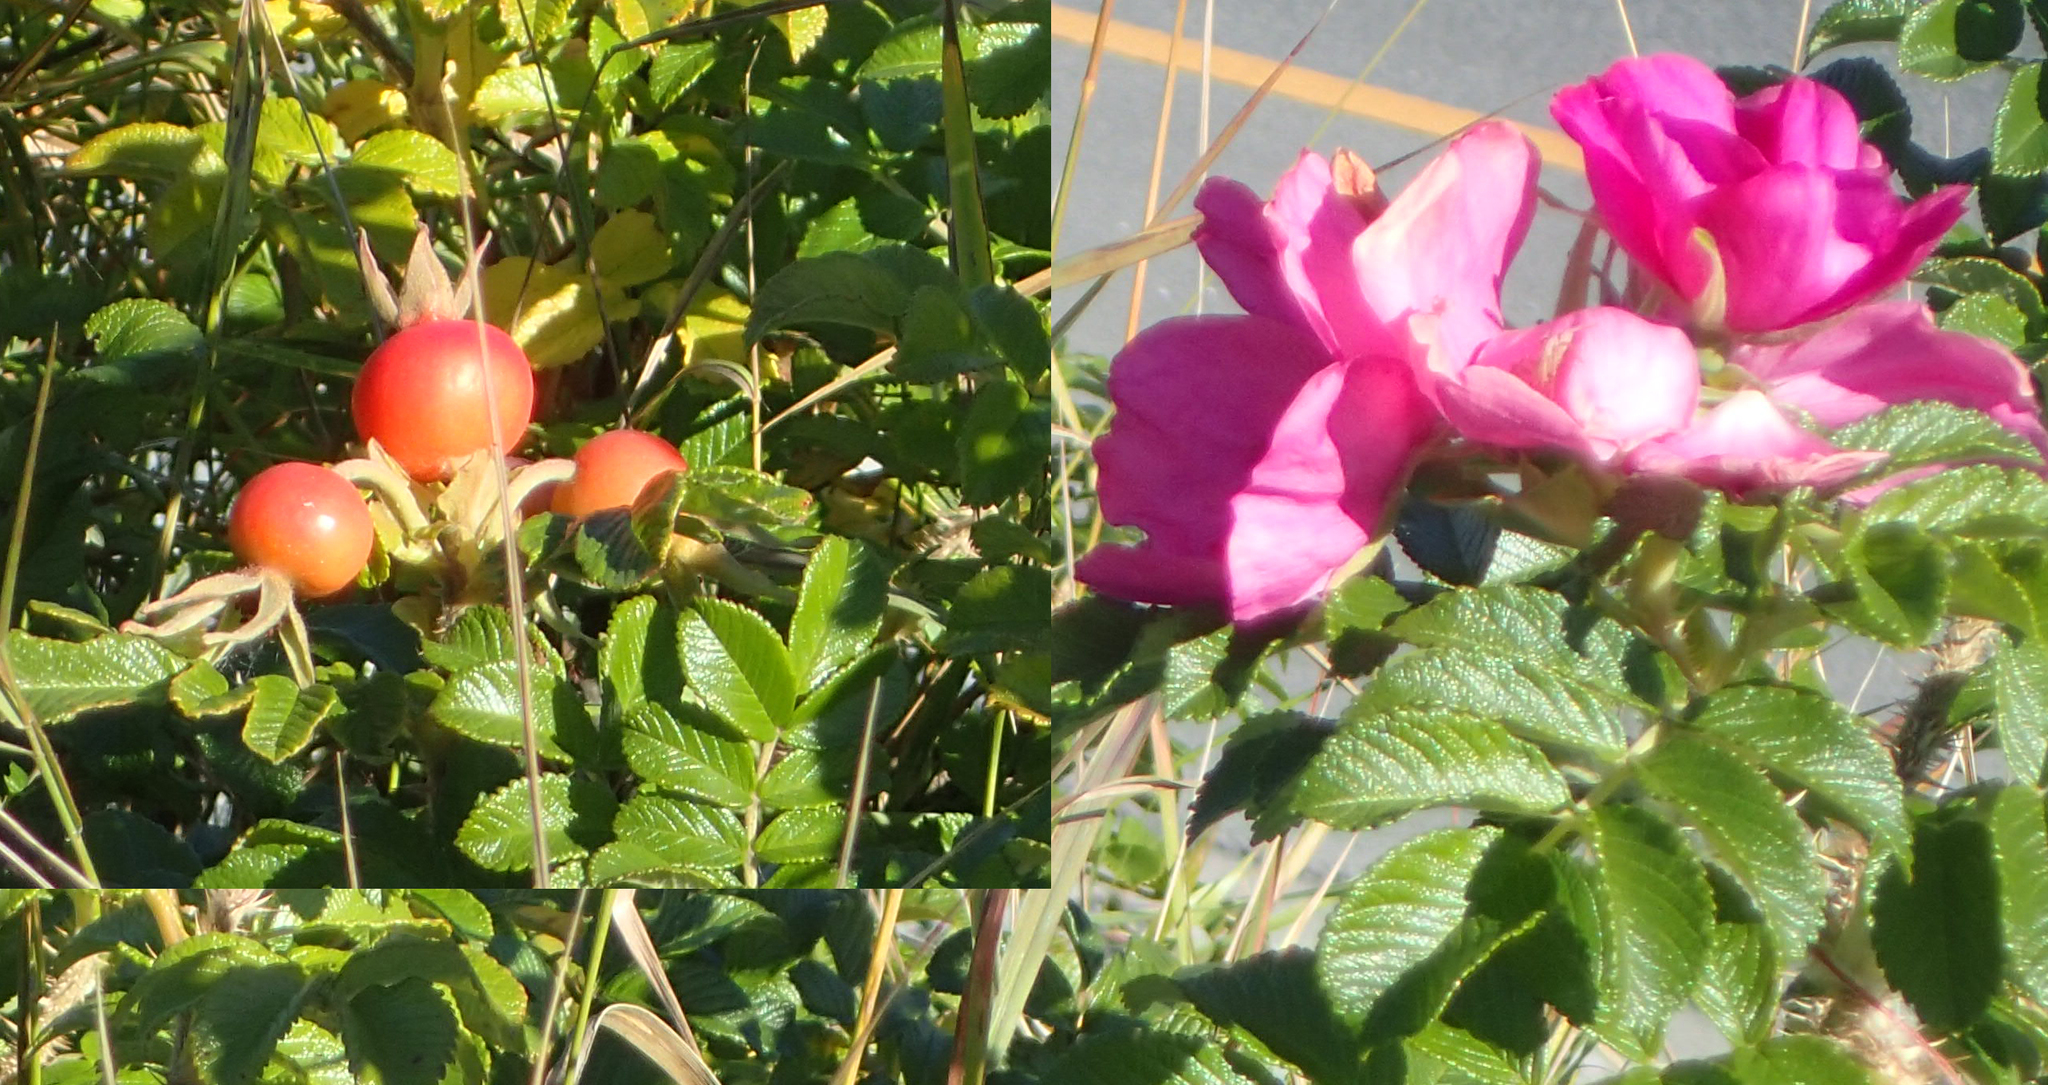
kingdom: Plantae
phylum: Tracheophyta
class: Magnoliopsida
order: Rosales
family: Rosaceae
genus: Rosa
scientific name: Rosa rugosa
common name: Japanese rose
